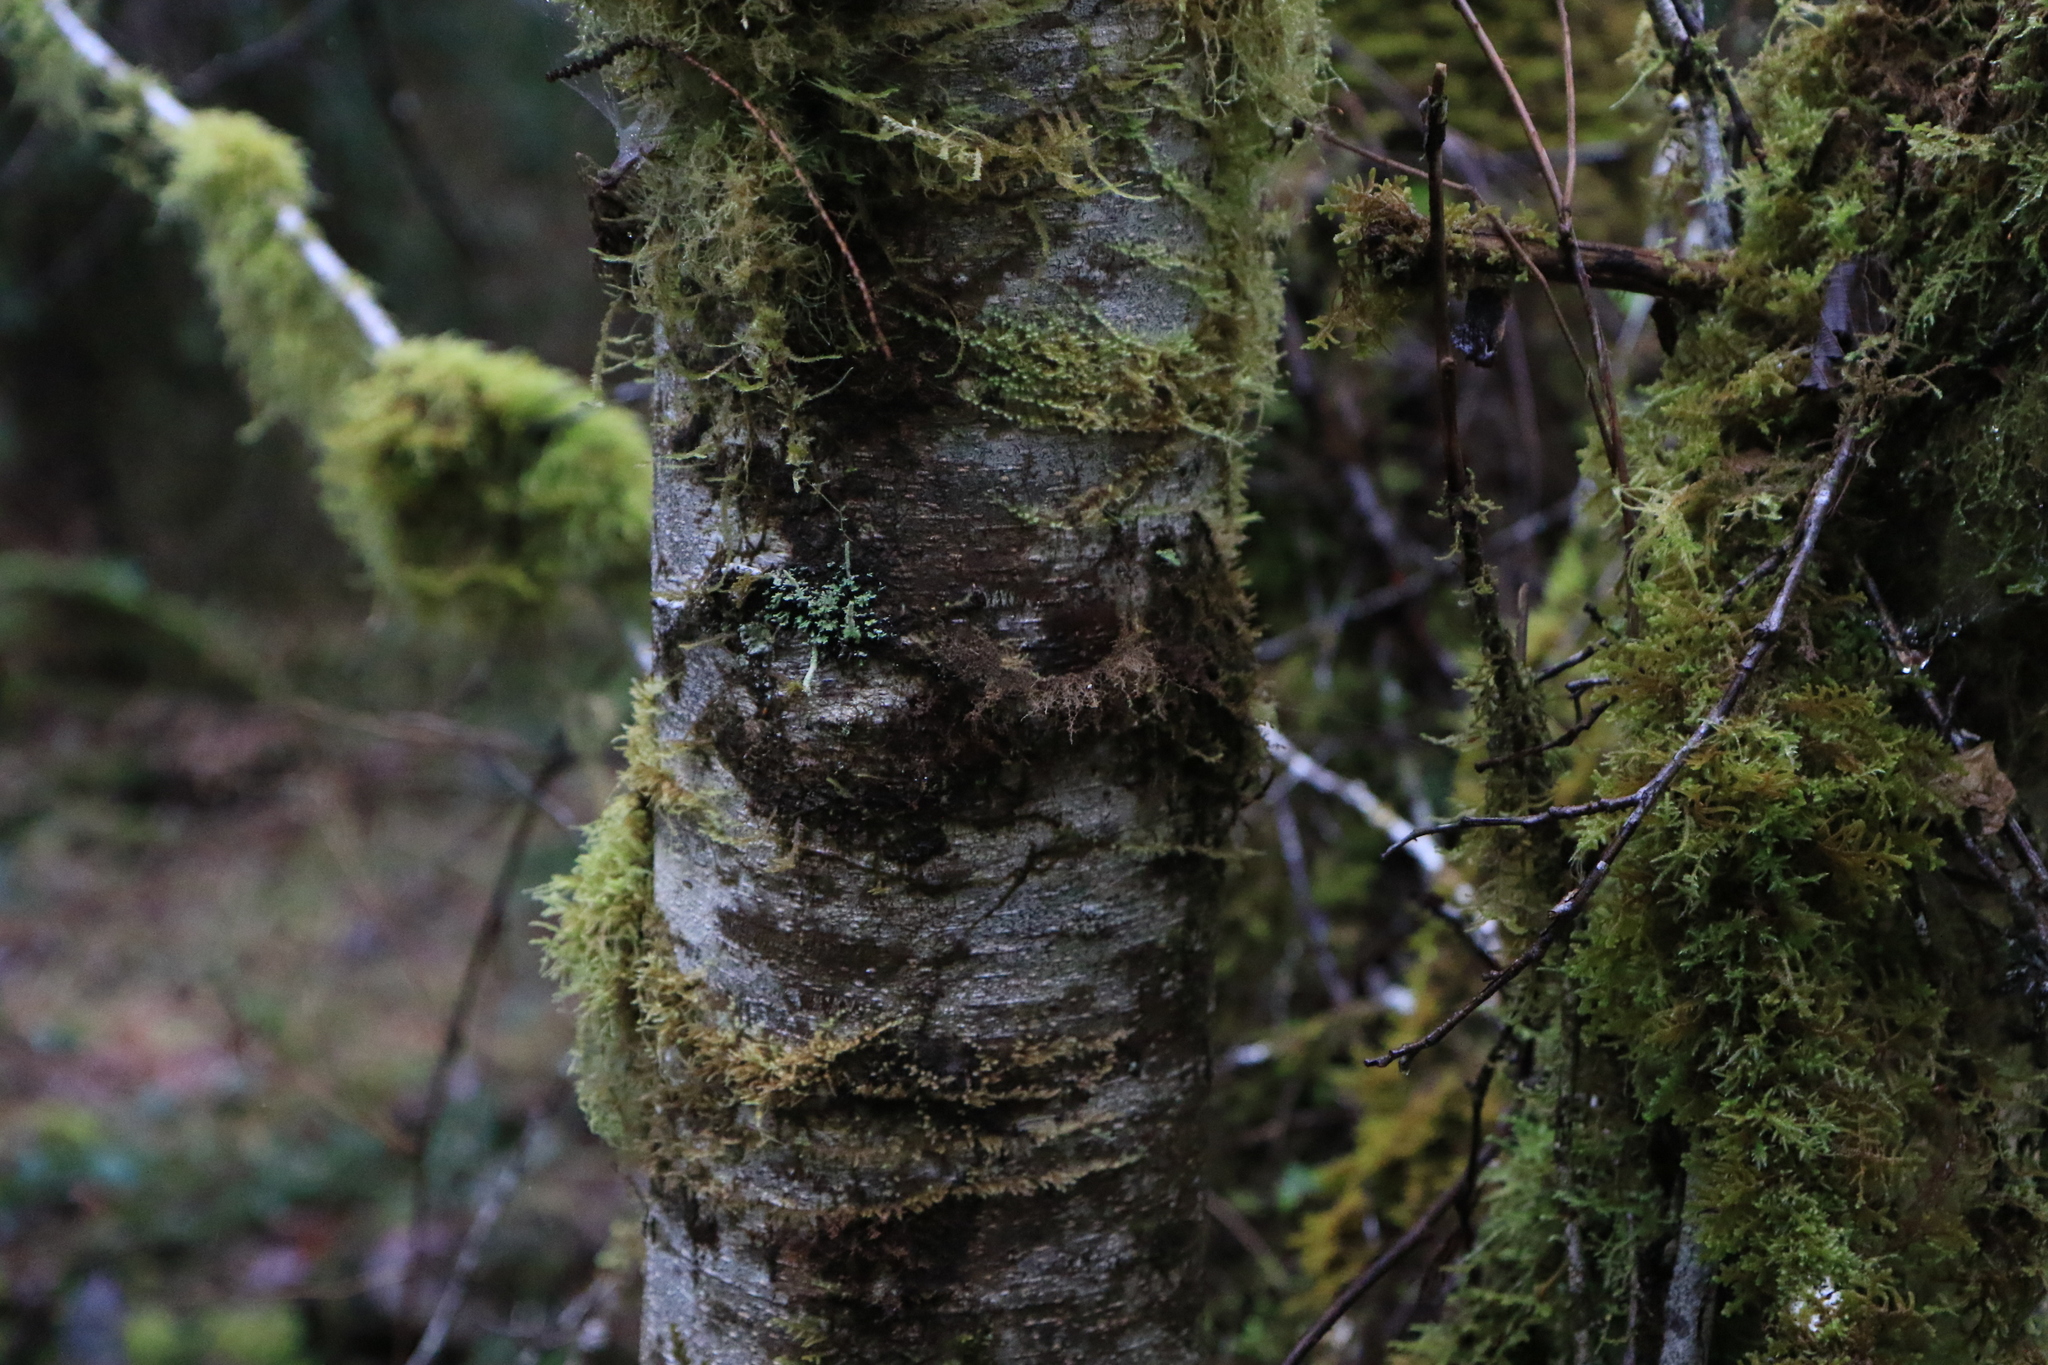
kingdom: Plantae
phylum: Tracheophyta
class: Magnoliopsida
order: Fagales
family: Betulaceae
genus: Alnus
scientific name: Alnus rubra
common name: Red alder
